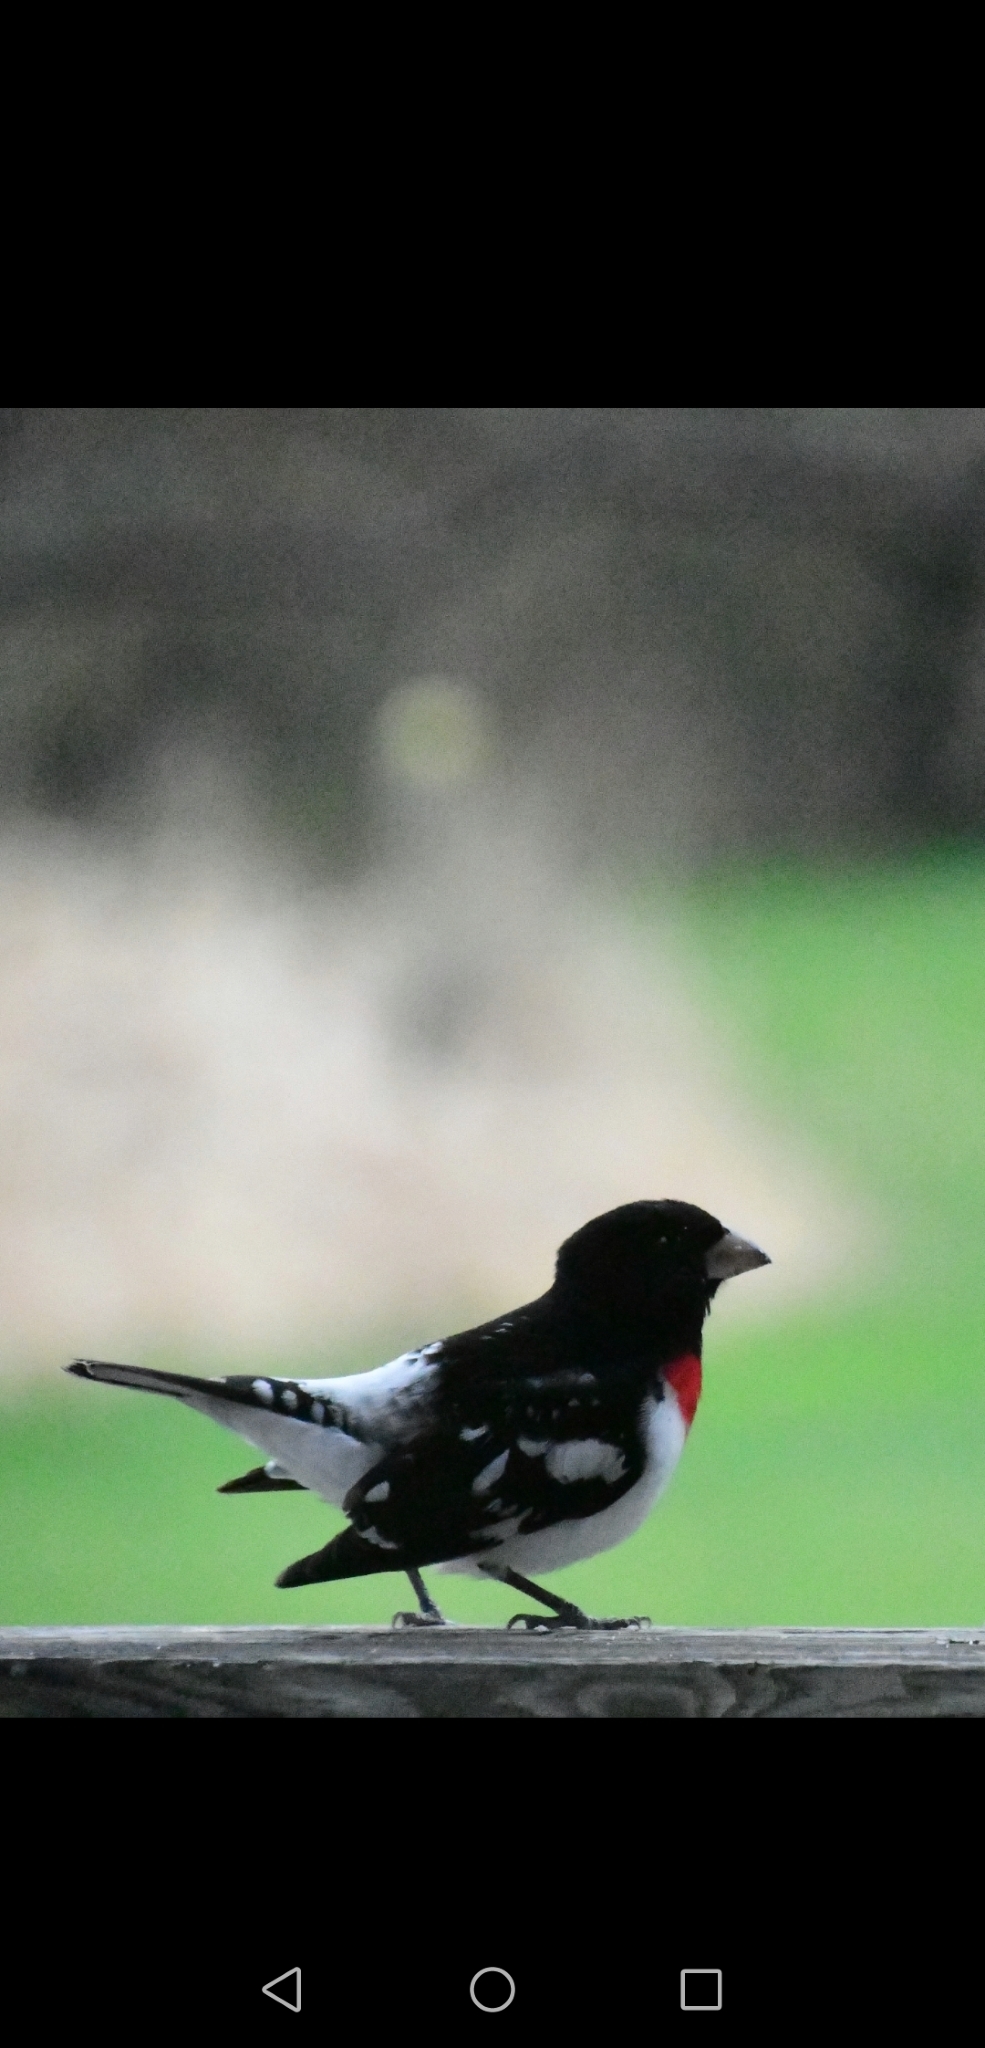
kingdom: Animalia
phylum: Chordata
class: Aves
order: Passeriformes
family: Cardinalidae
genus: Pheucticus
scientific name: Pheucticus ludovicianus
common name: Rose-breasted grosbeak
